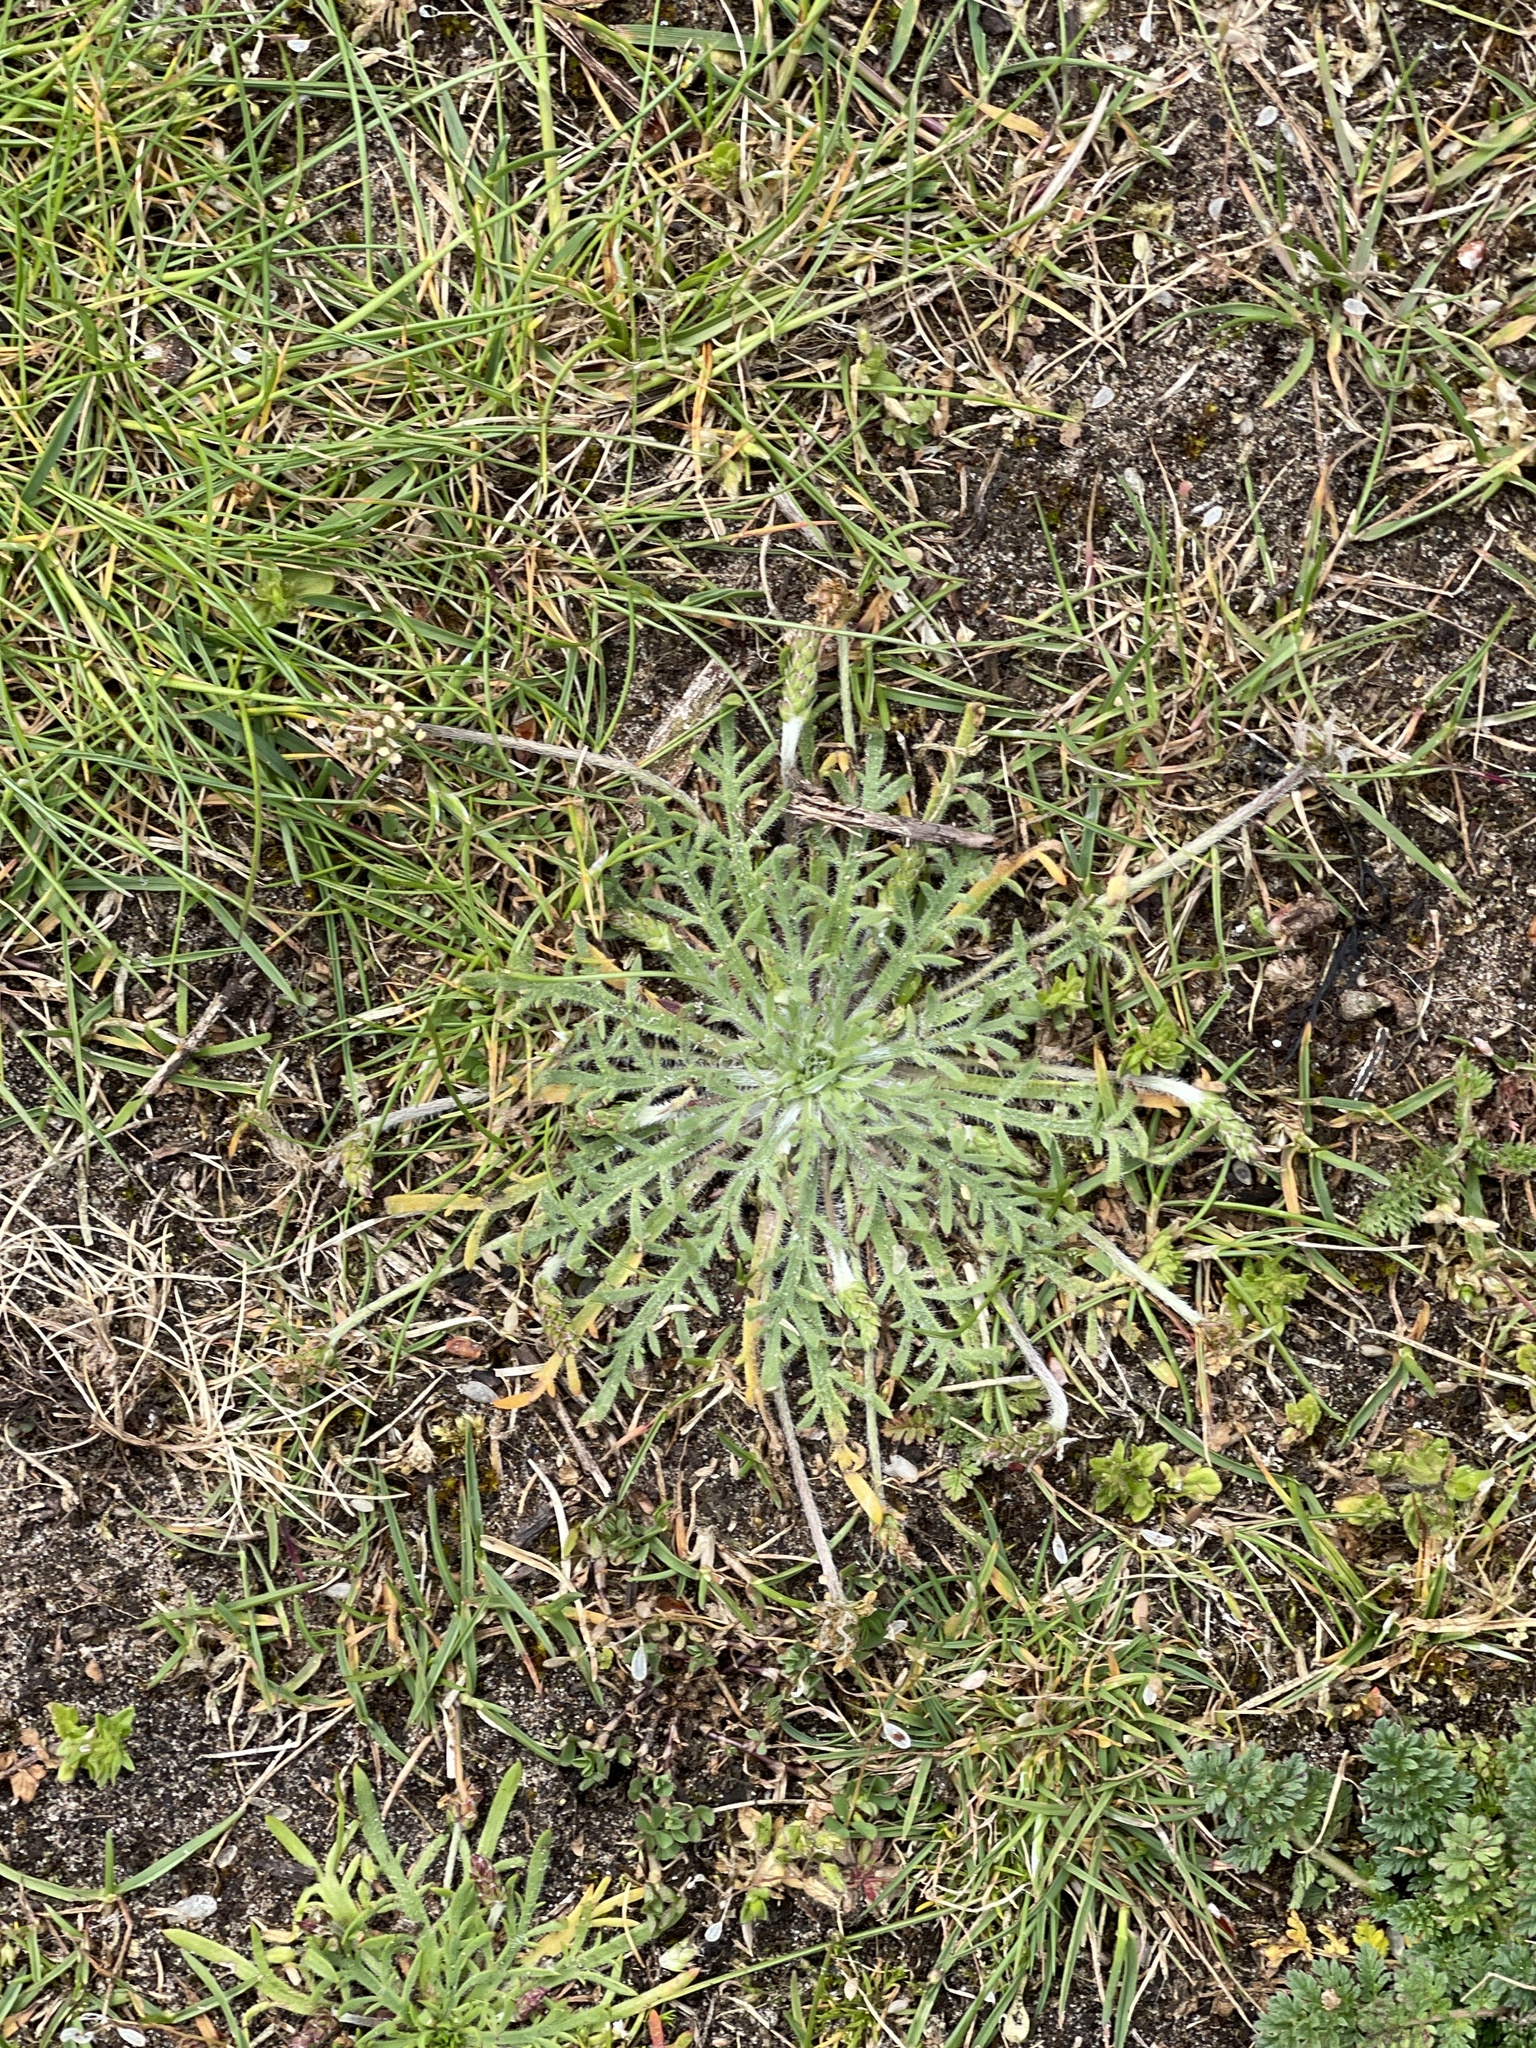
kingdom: Plantae
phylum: Tracheophyta
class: Magnoliopsida
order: Lamiales
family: Plantaginaceae
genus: Plantago
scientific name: Plantago coronopus
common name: Buck's-horn plantain
